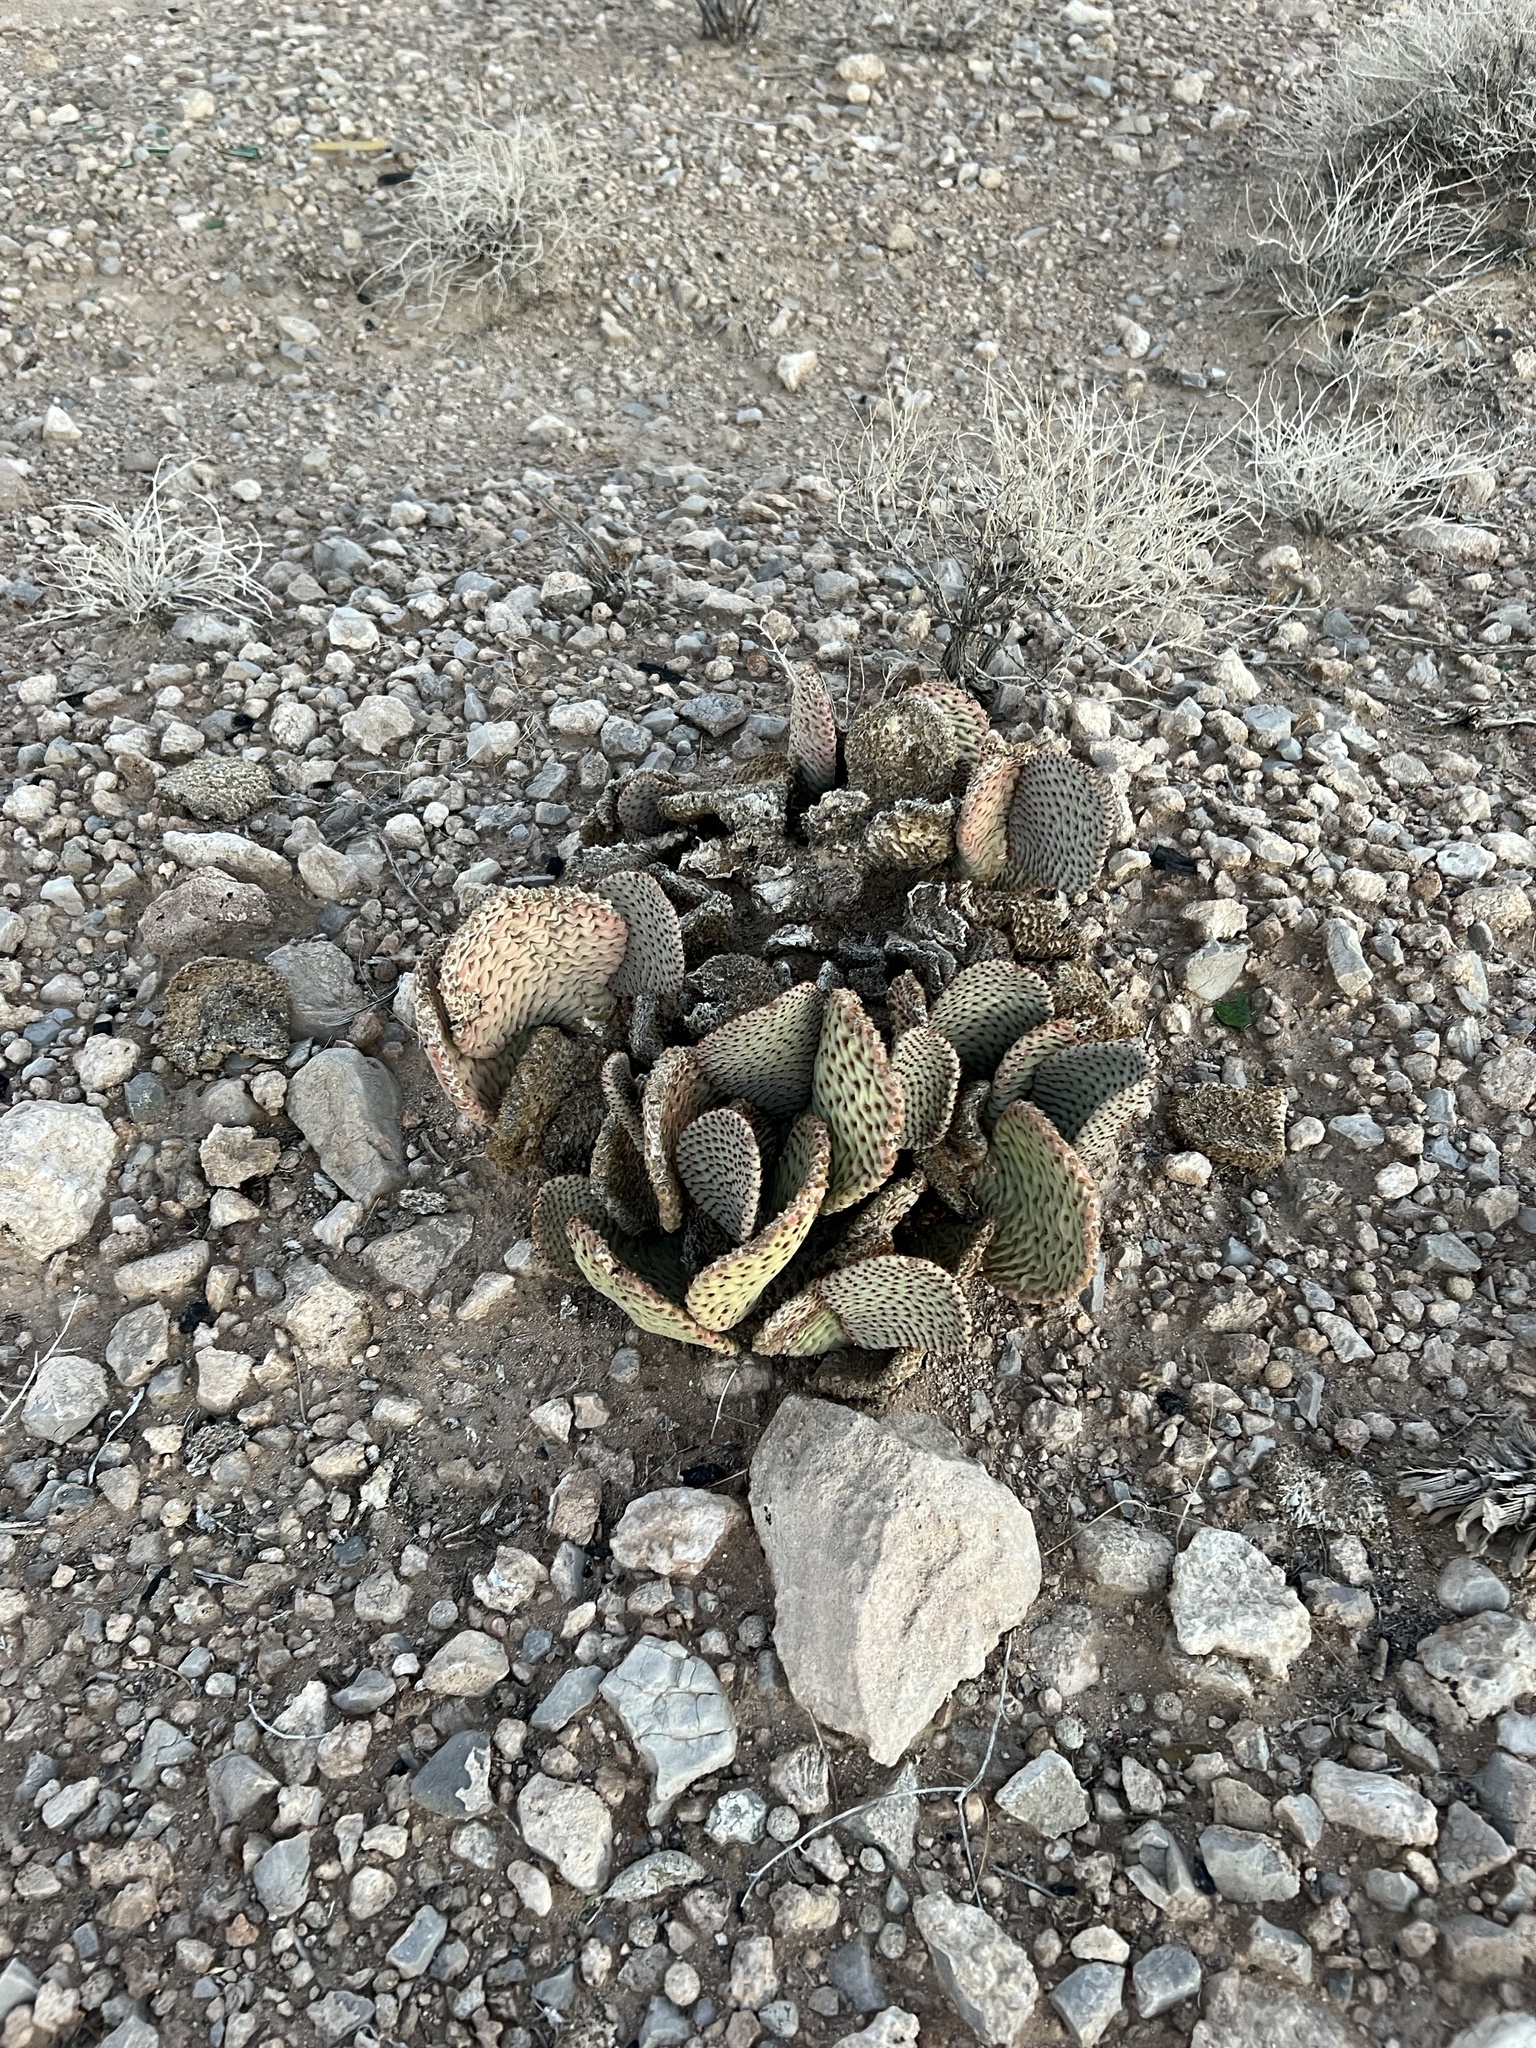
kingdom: Plantae
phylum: Tracheophyta
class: Magnoliopsida
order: Caryophyllales
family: Cactaceae
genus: Opuntia
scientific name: Opuntia basilaris
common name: Beavertail prickly-pear
